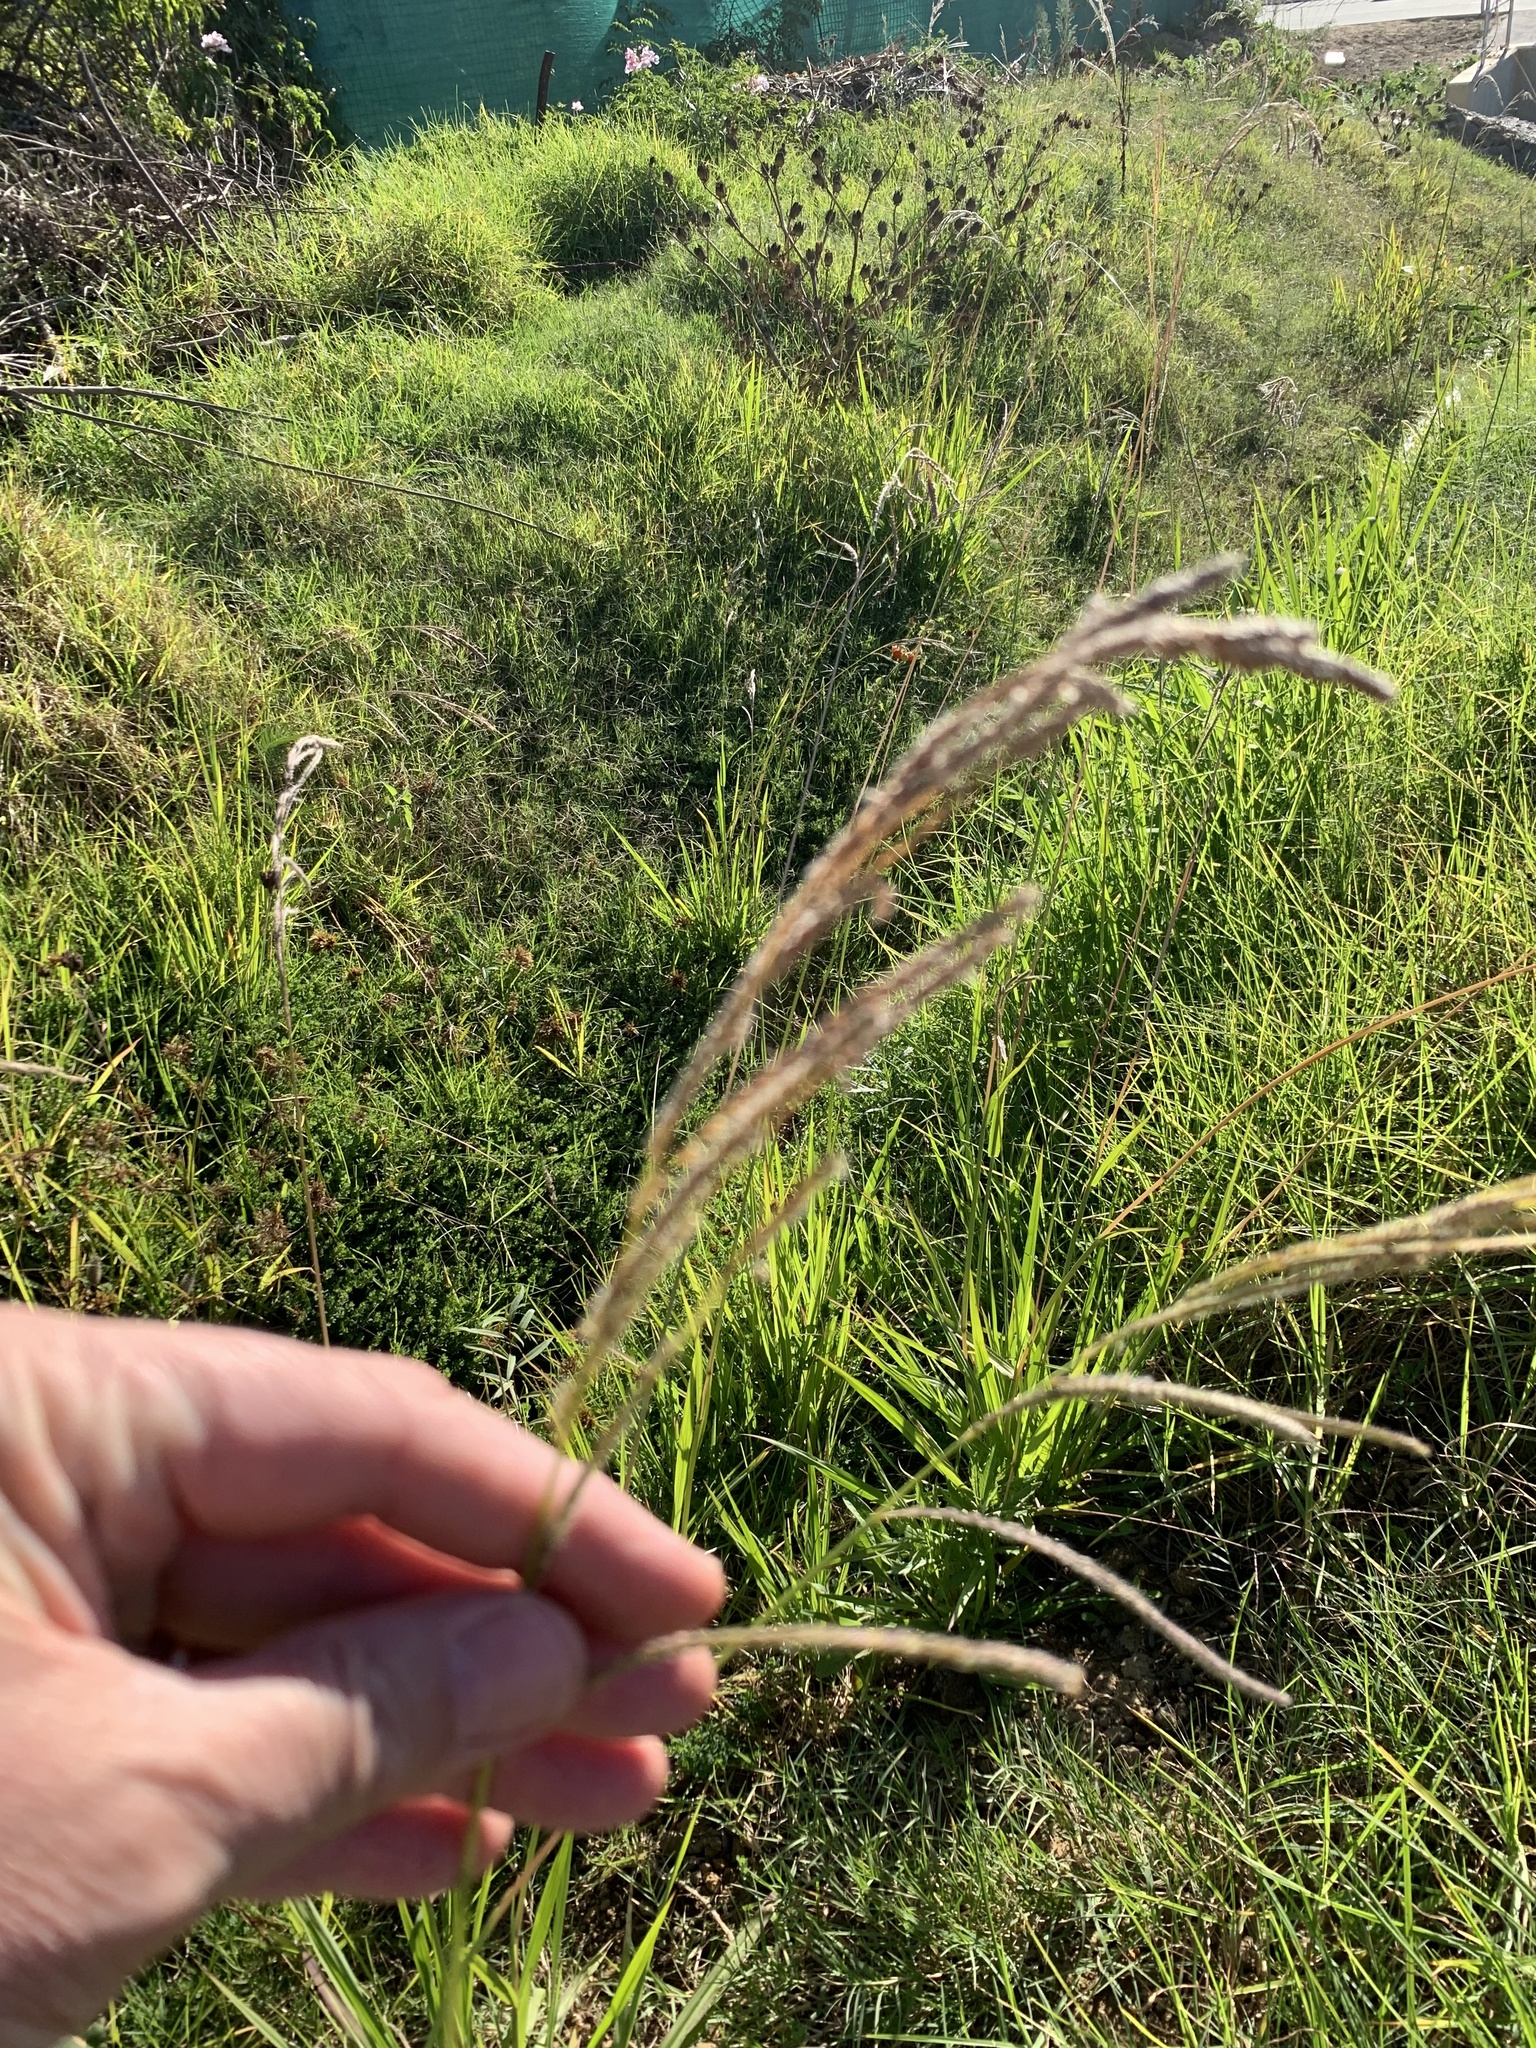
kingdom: Plantae
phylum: Tracheophyta
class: Liliopsida
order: Poales
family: Poaceae
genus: Paspalum
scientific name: Paspalum urvillei
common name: Vasey's grass
